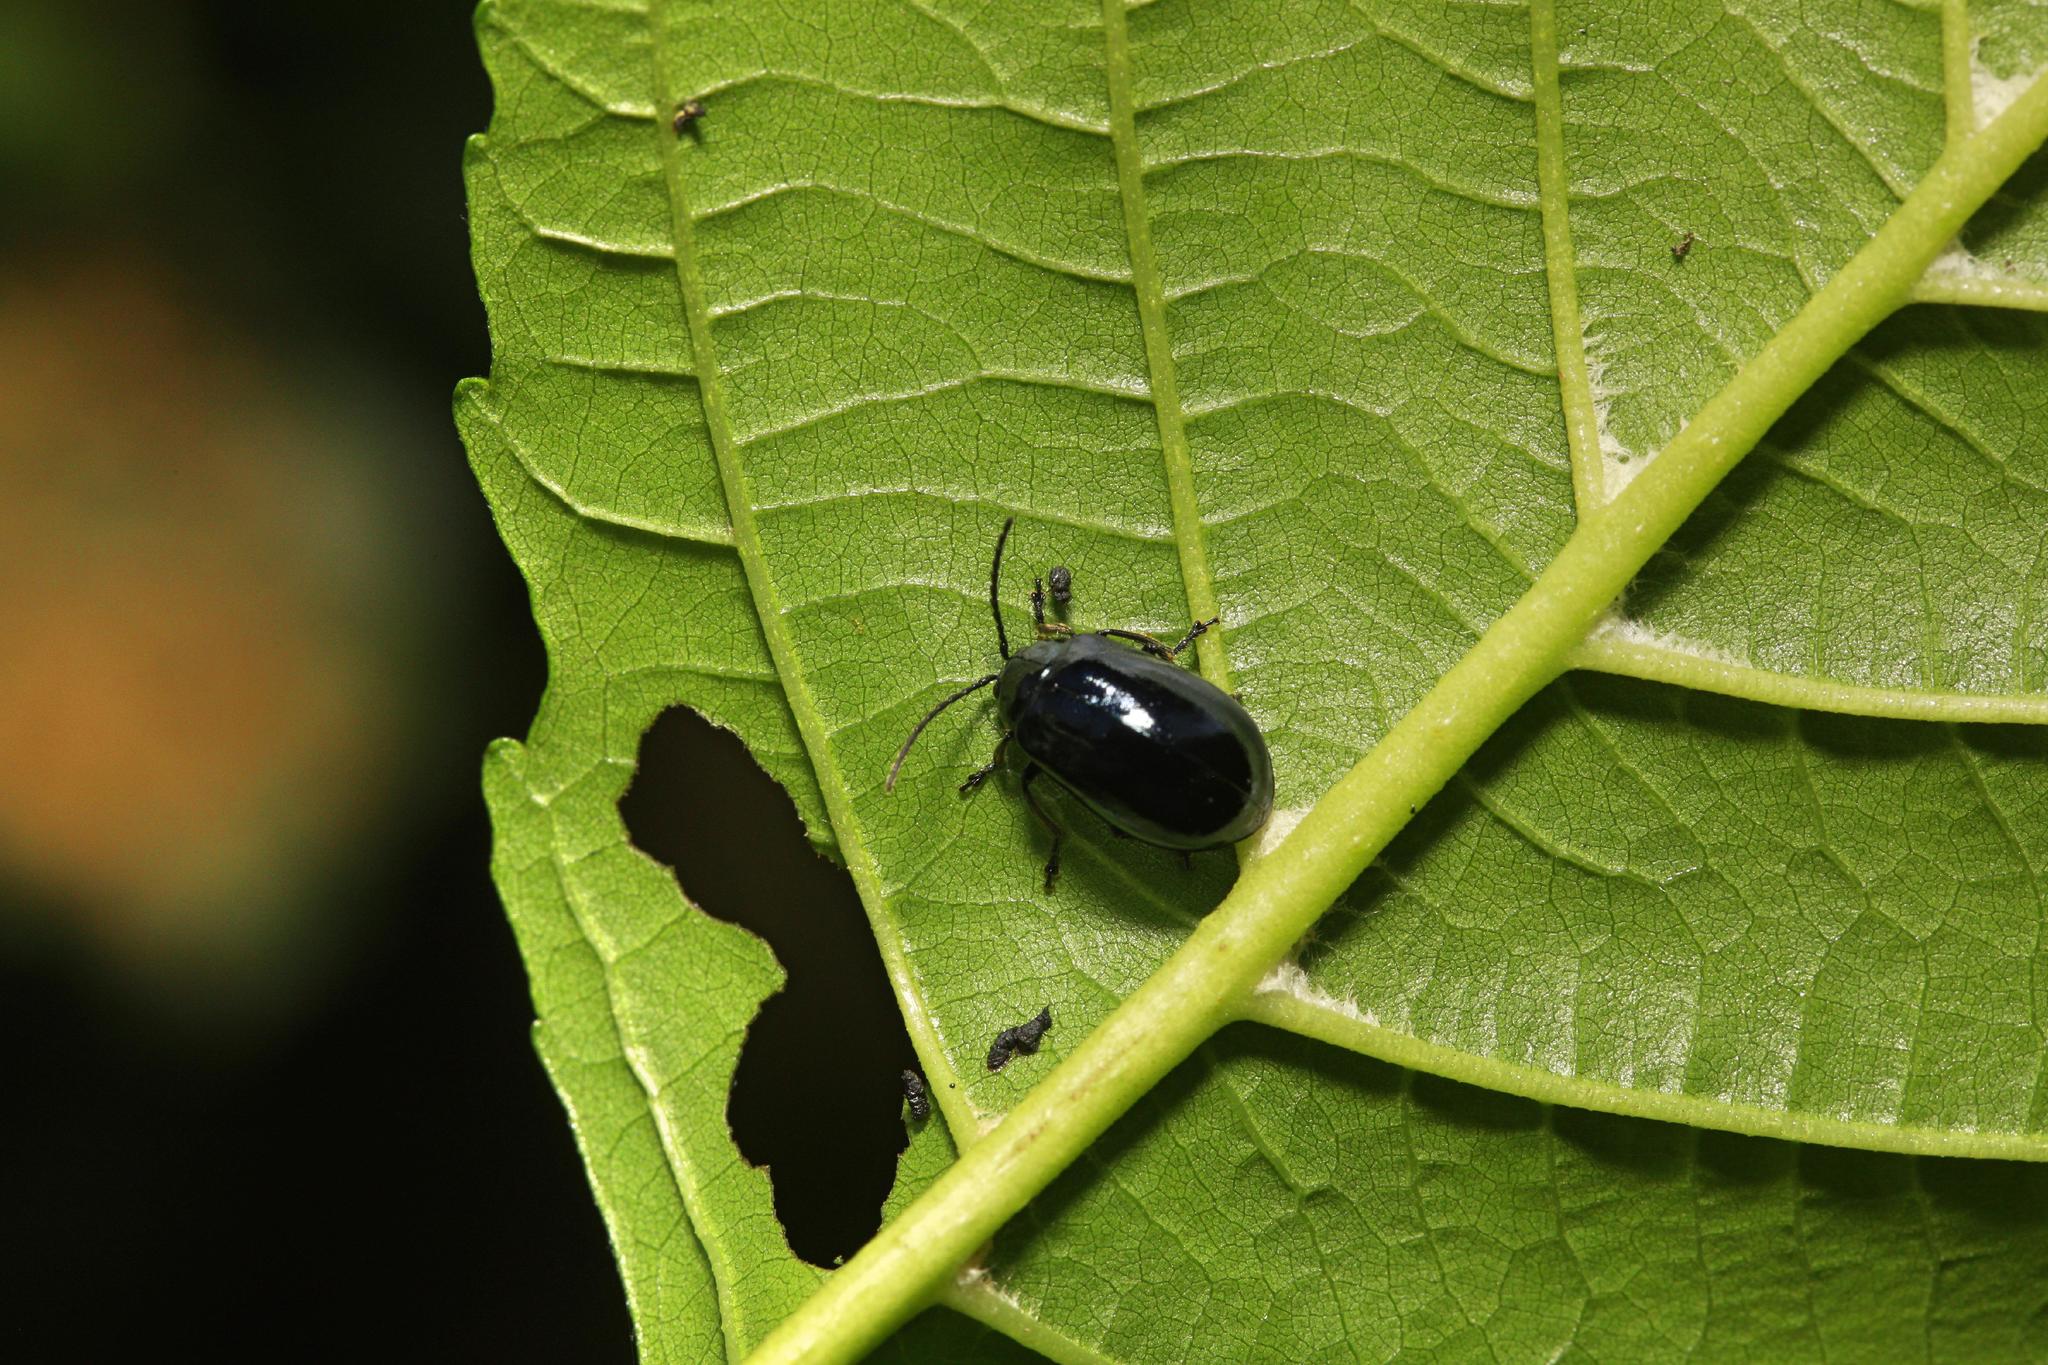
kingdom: Animalia
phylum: Arthropoda
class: Insecta
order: Coleoptera
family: Chrysomelidae
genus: Agelastica
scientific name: Agelastica alni
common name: Alder leaf beetle
